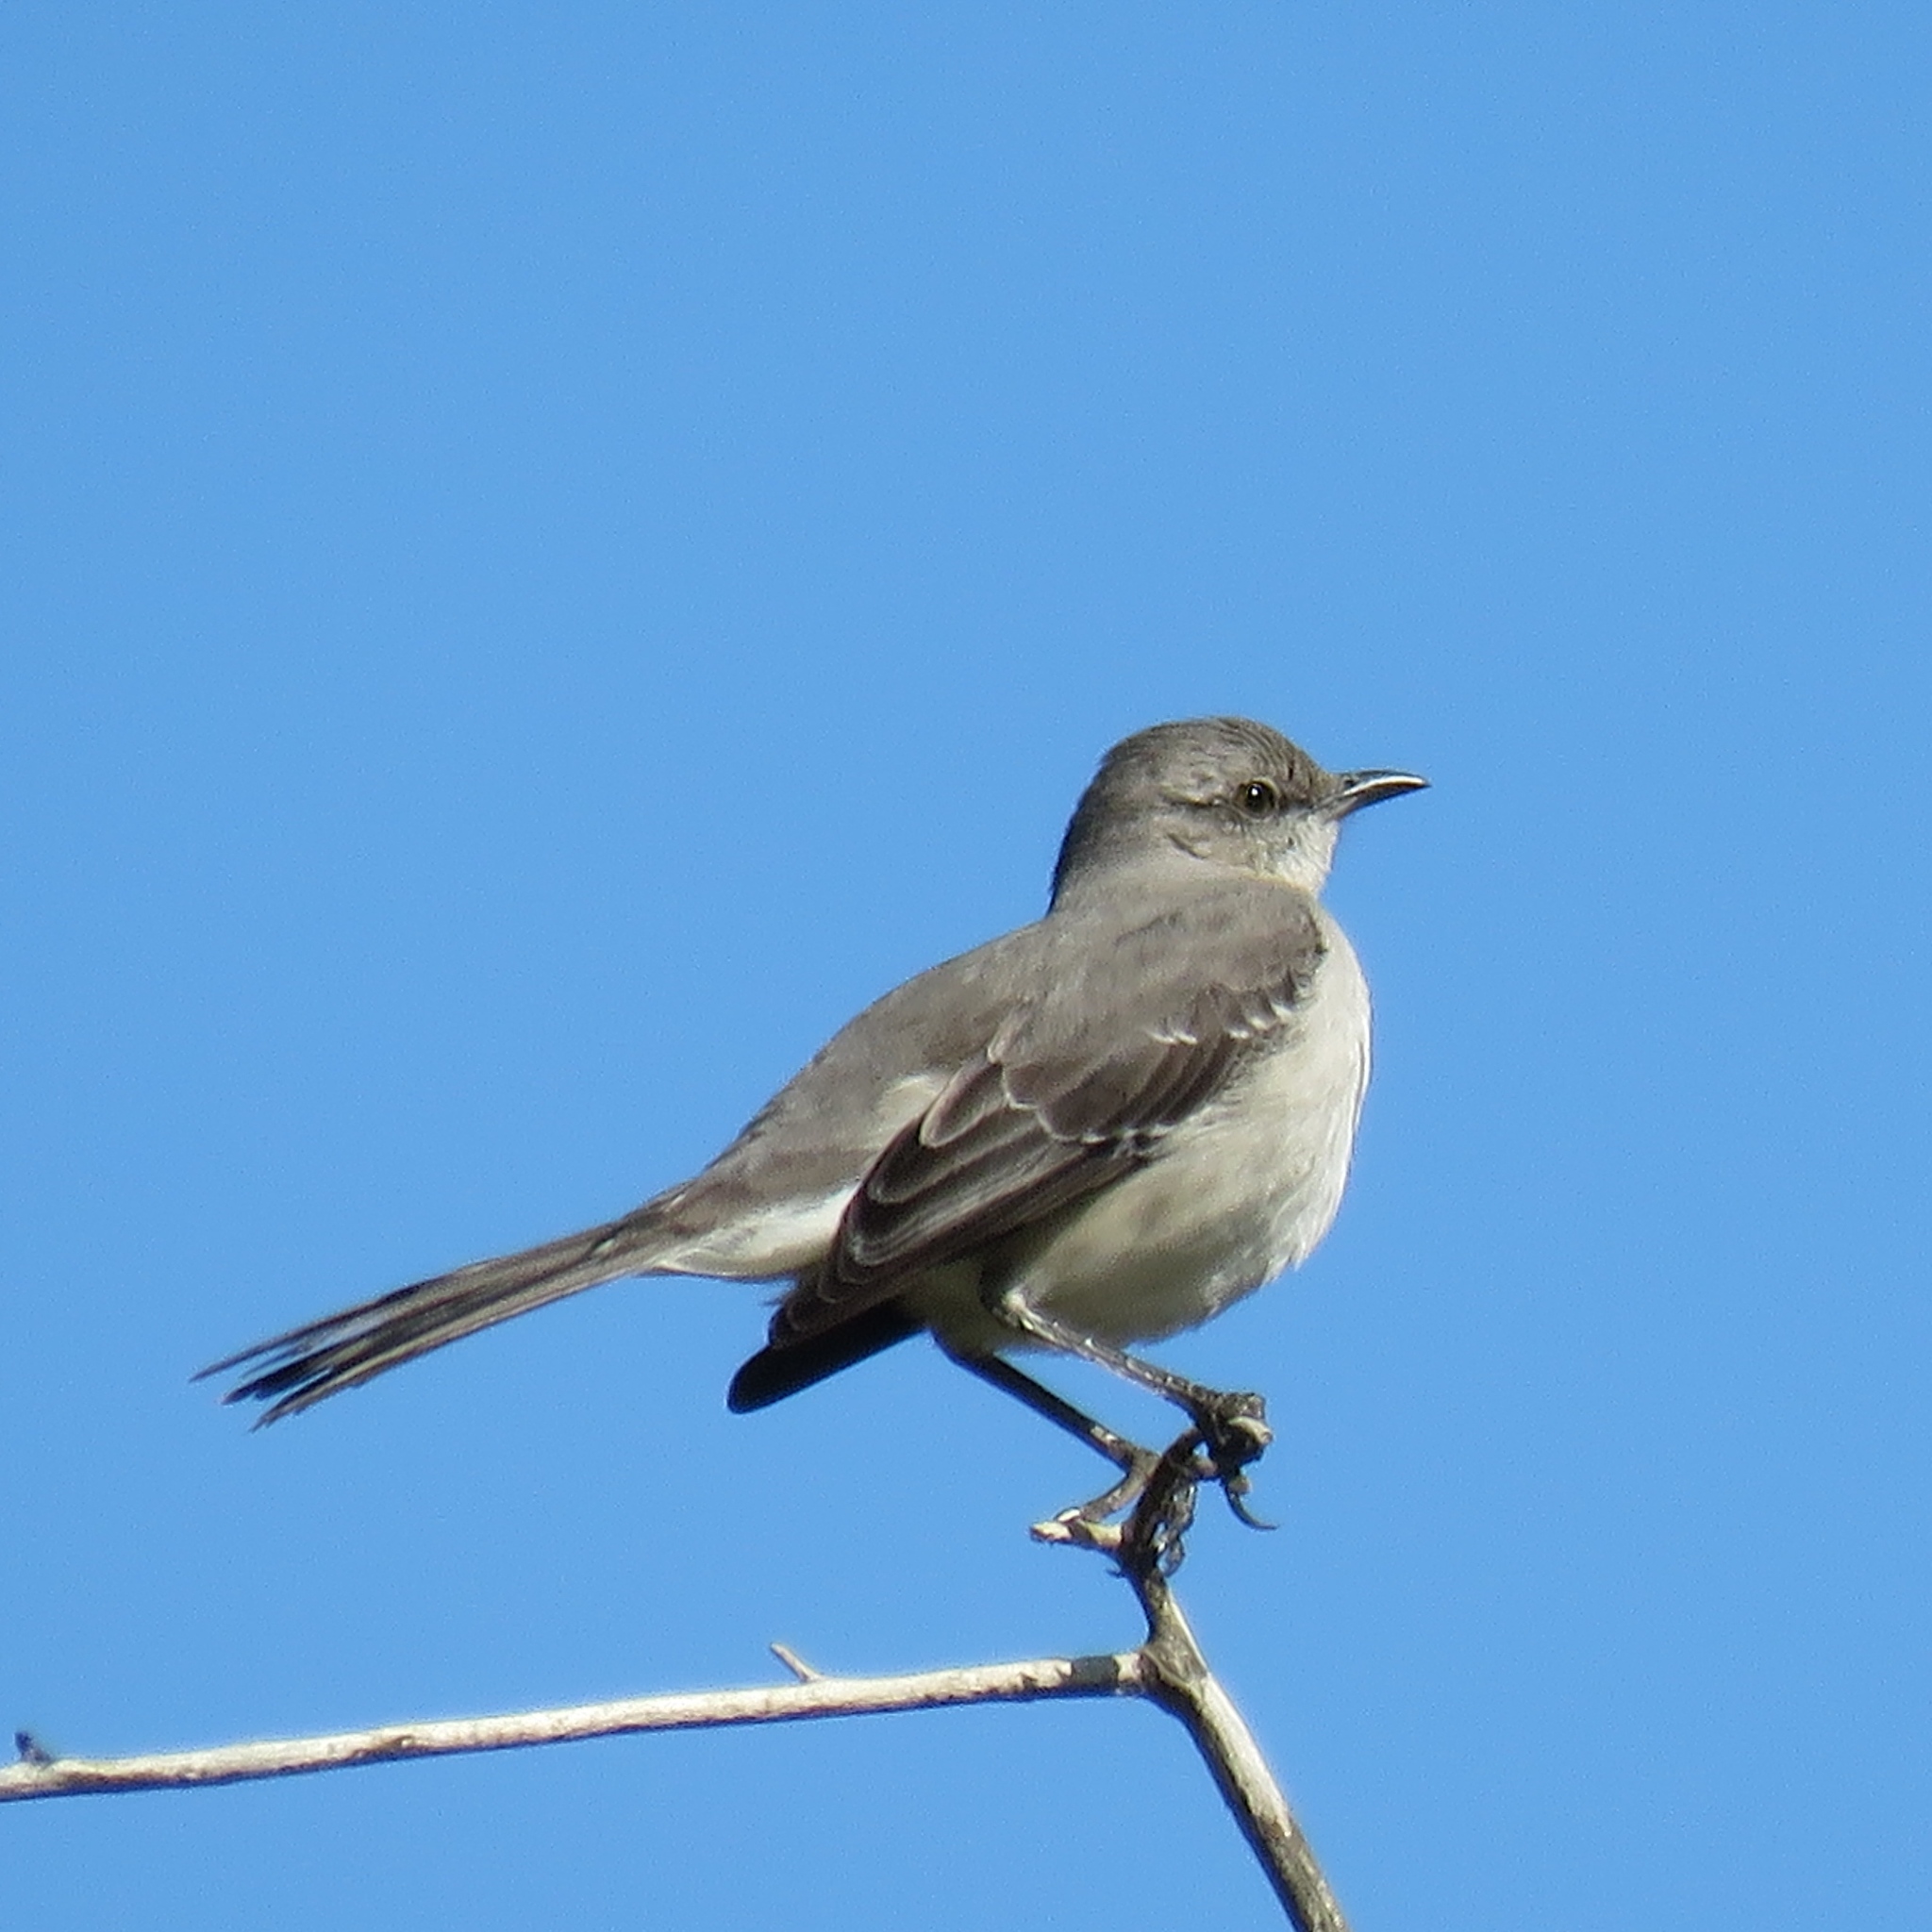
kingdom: Animalia
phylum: Chordata
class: Aves
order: Passeriformes
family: Mimidae
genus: Mimus
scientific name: Mimus polyglottos
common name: Northern mockingbird
